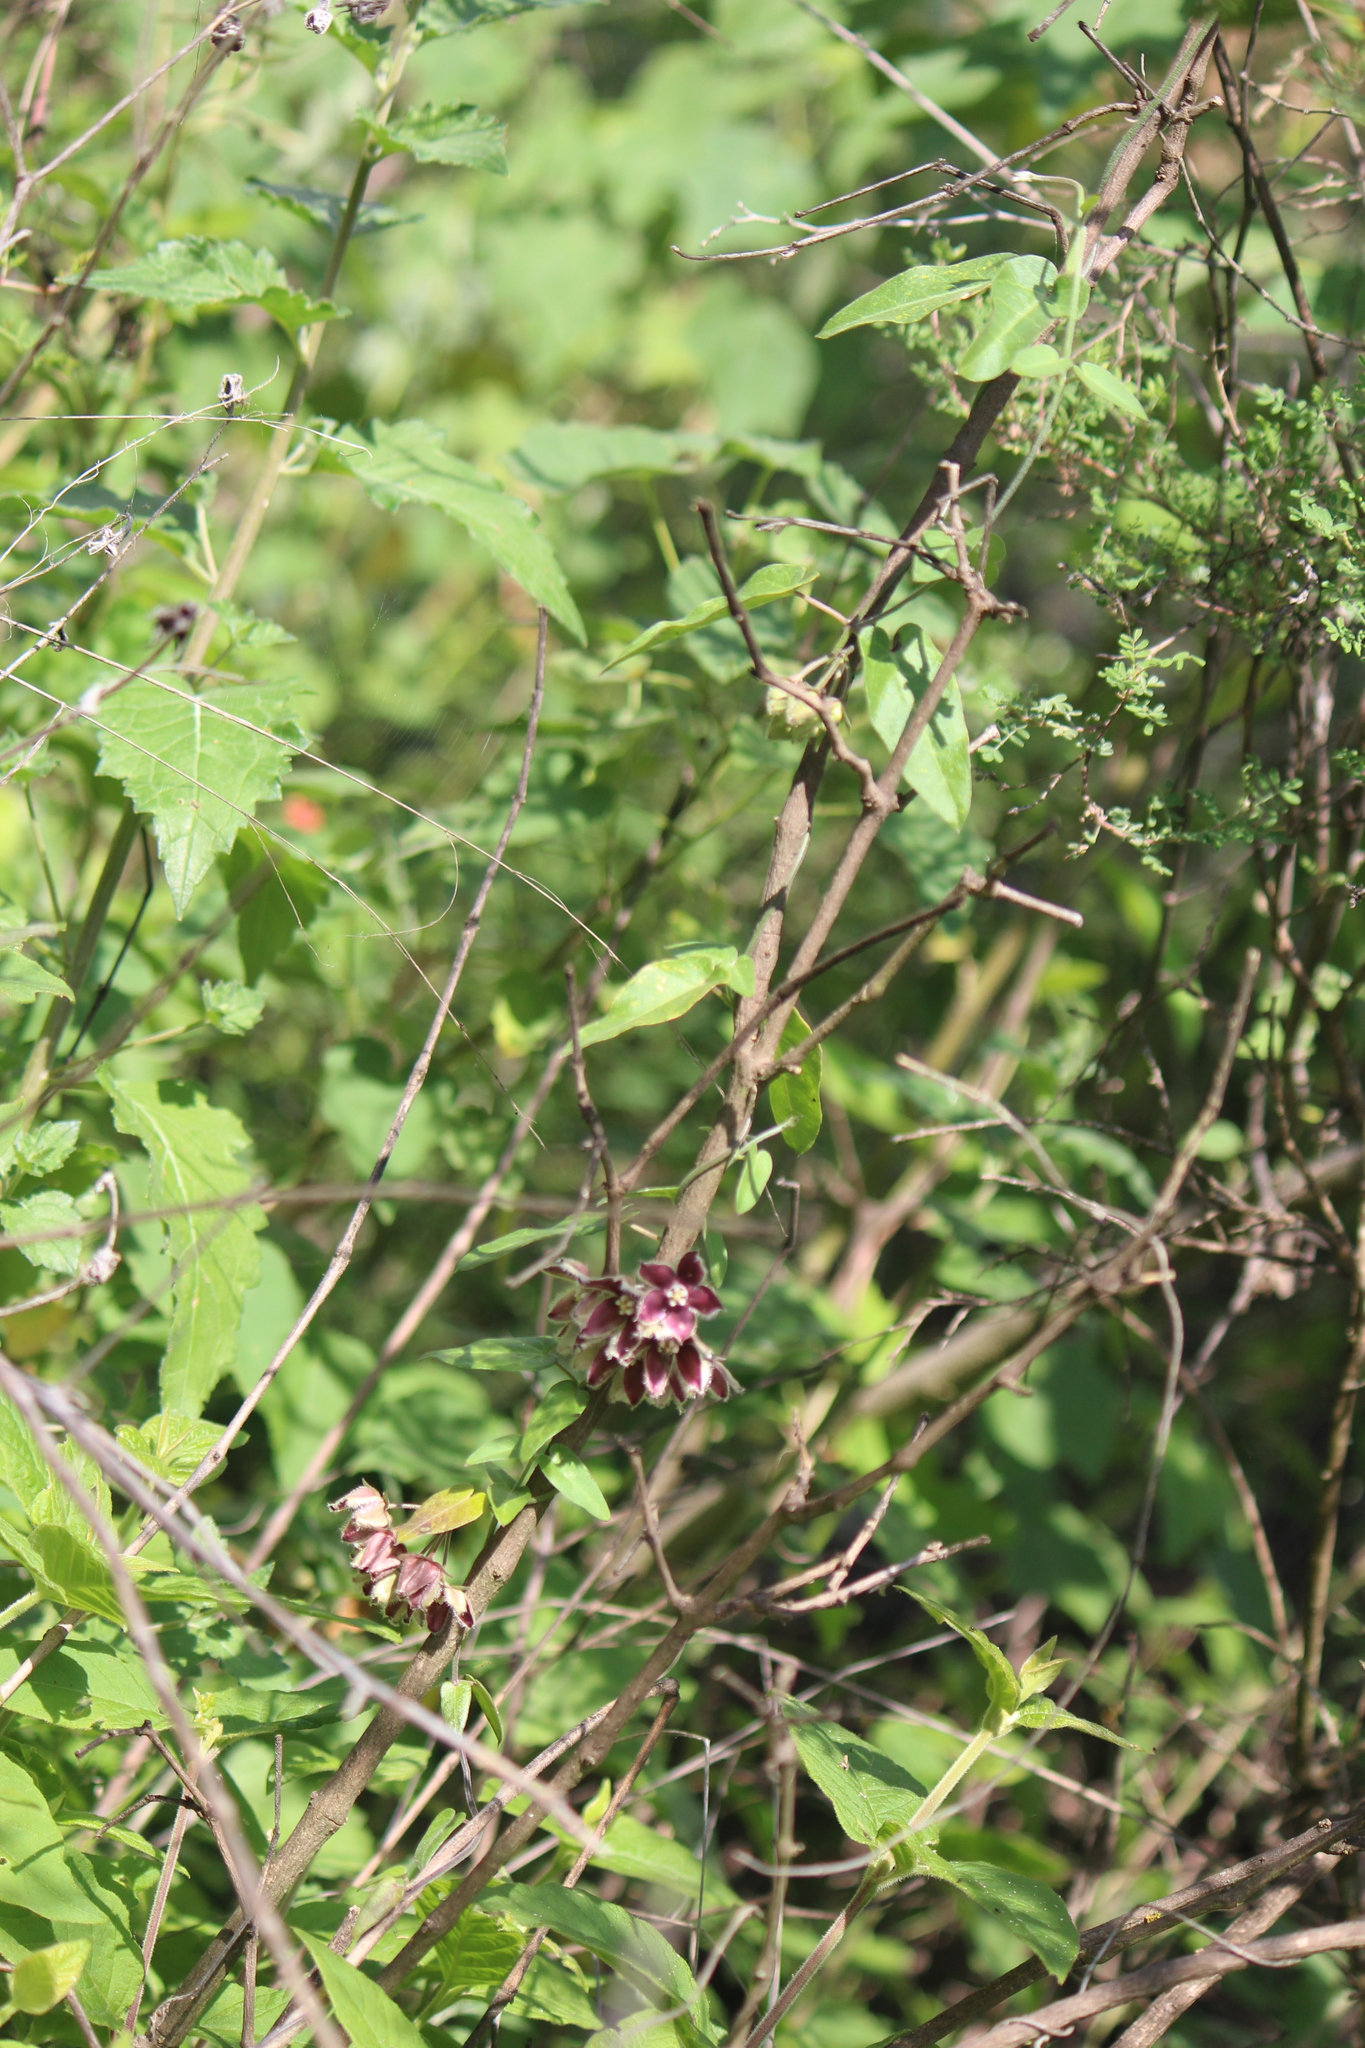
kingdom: Plantae
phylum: Tracheophyta
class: Magnoliopsida
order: Gentianales
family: Apocynaceae
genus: Funastrum
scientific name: Funastrum elegans
